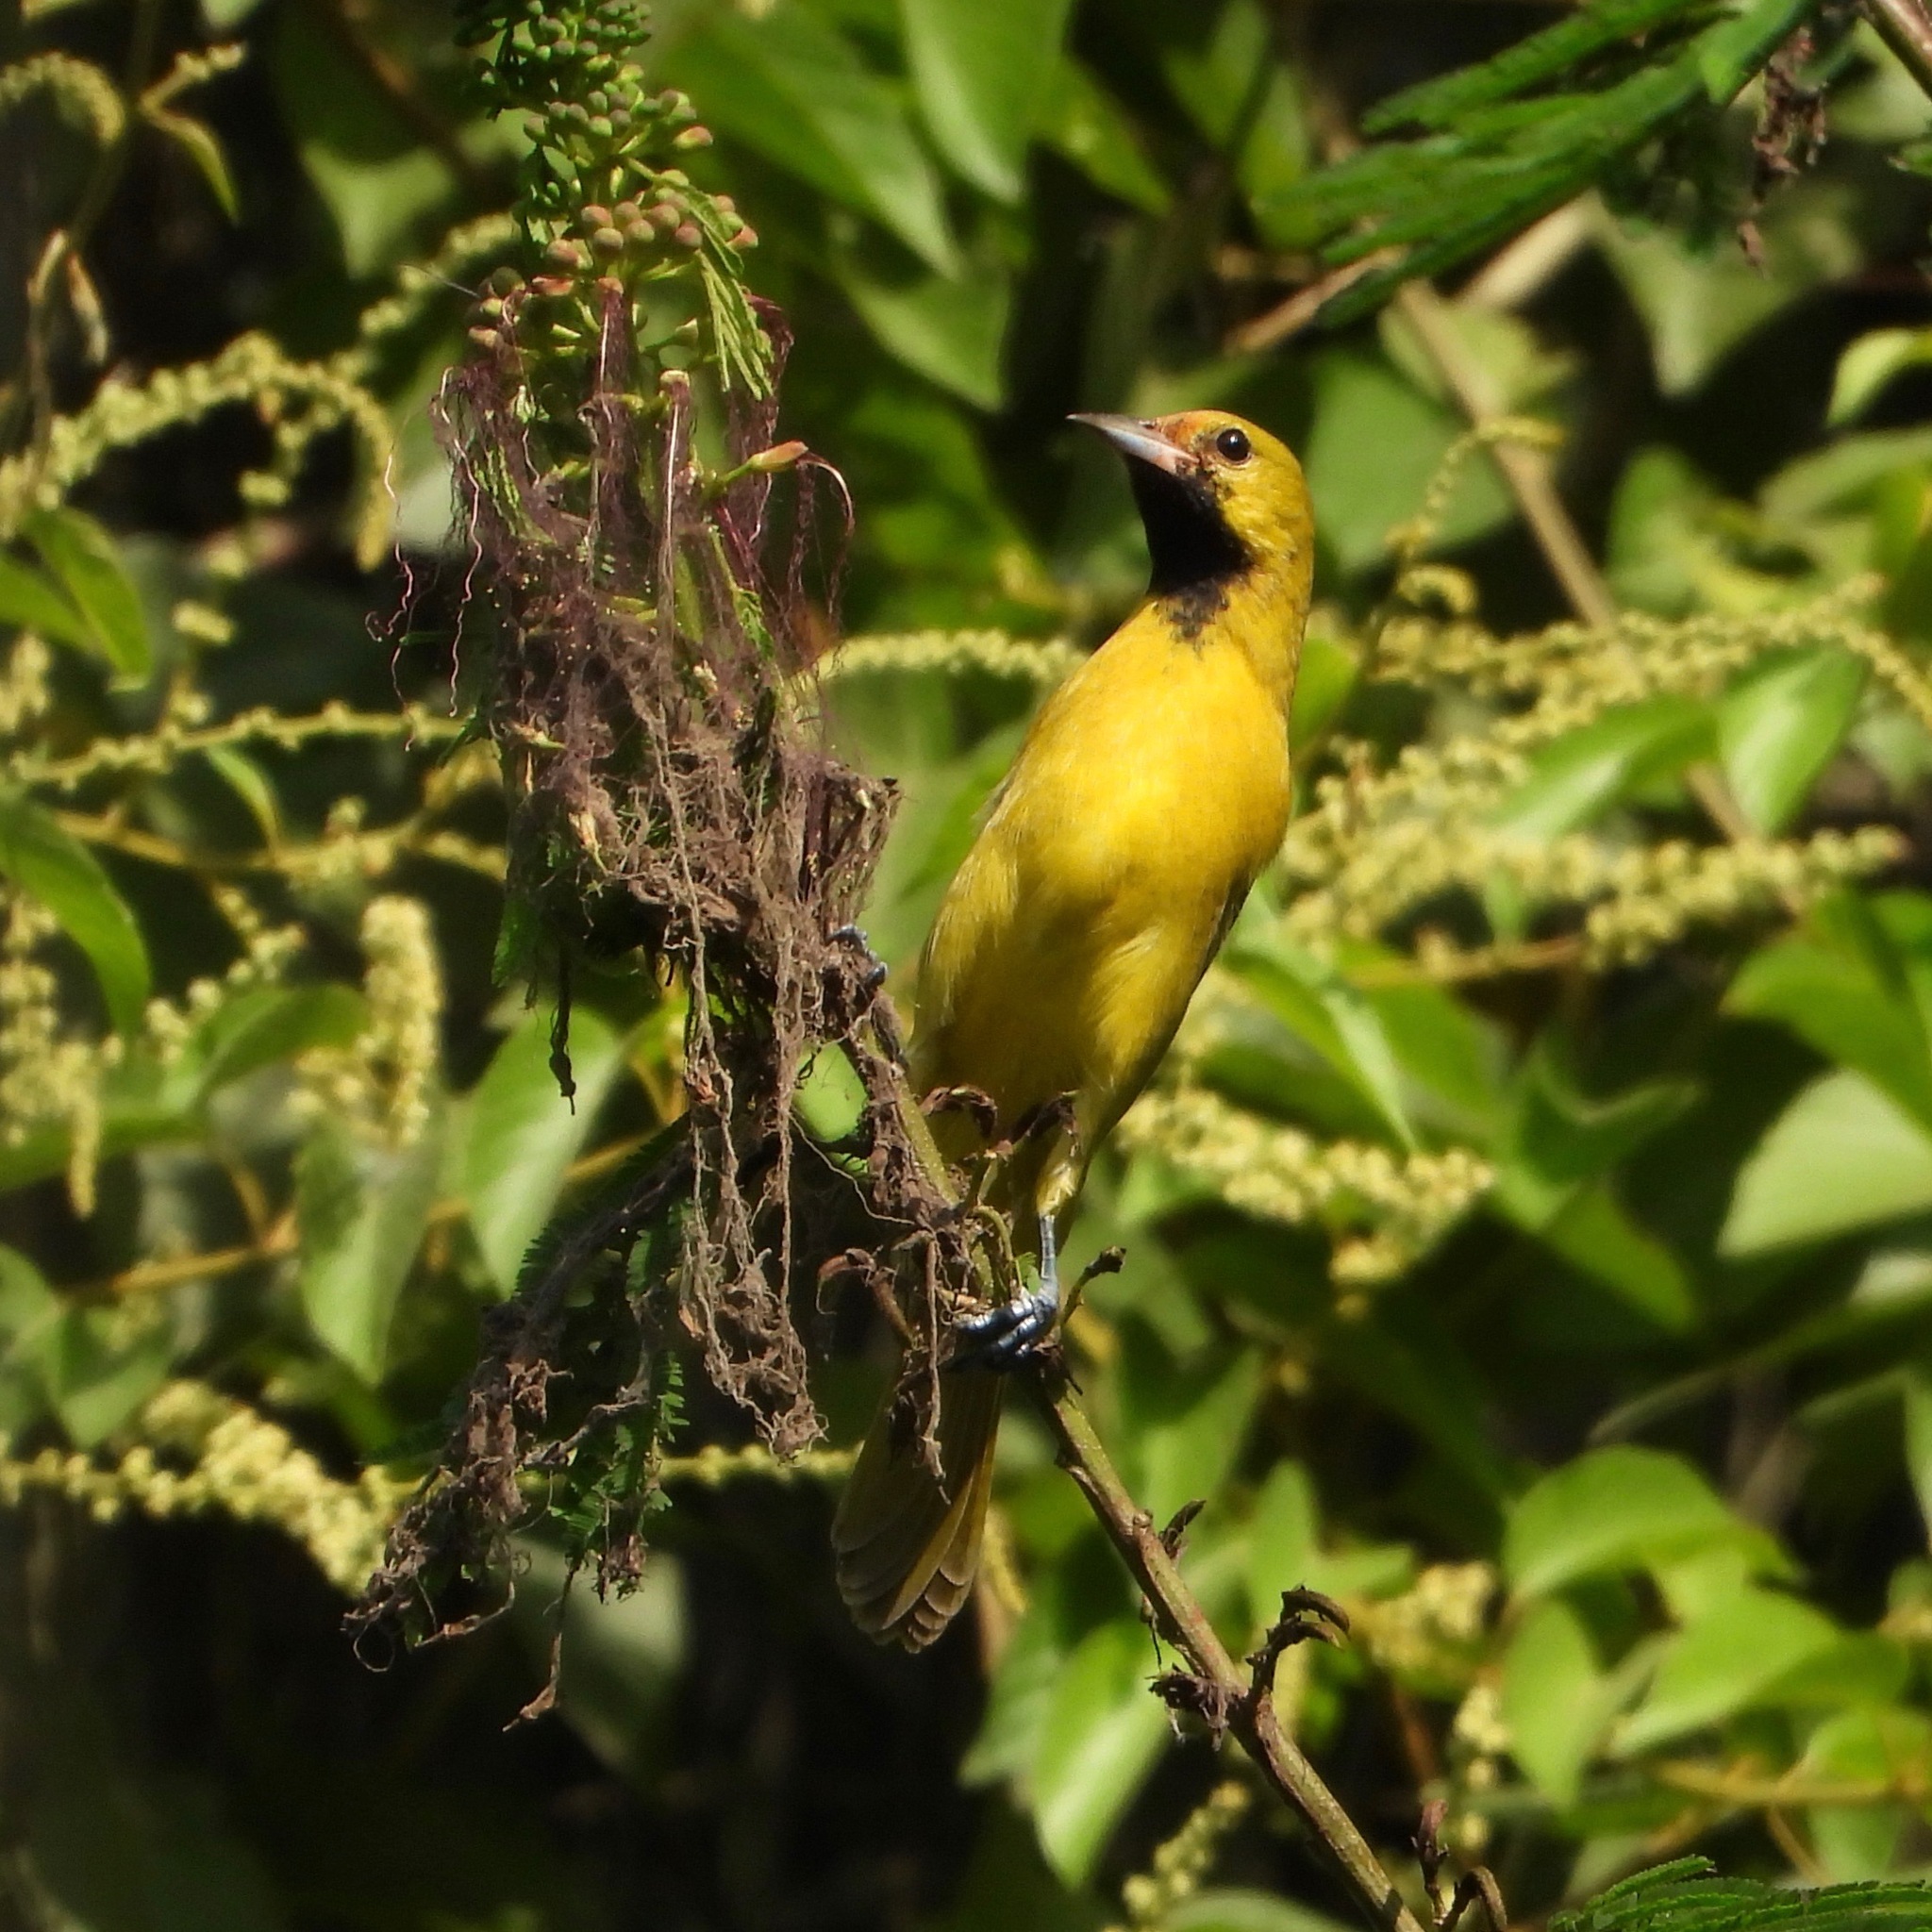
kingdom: Animalia
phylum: Chordata
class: Aves
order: Passeriformes
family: Icteridae
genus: Icterus
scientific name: Icterus spurius
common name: Orchard oriole
